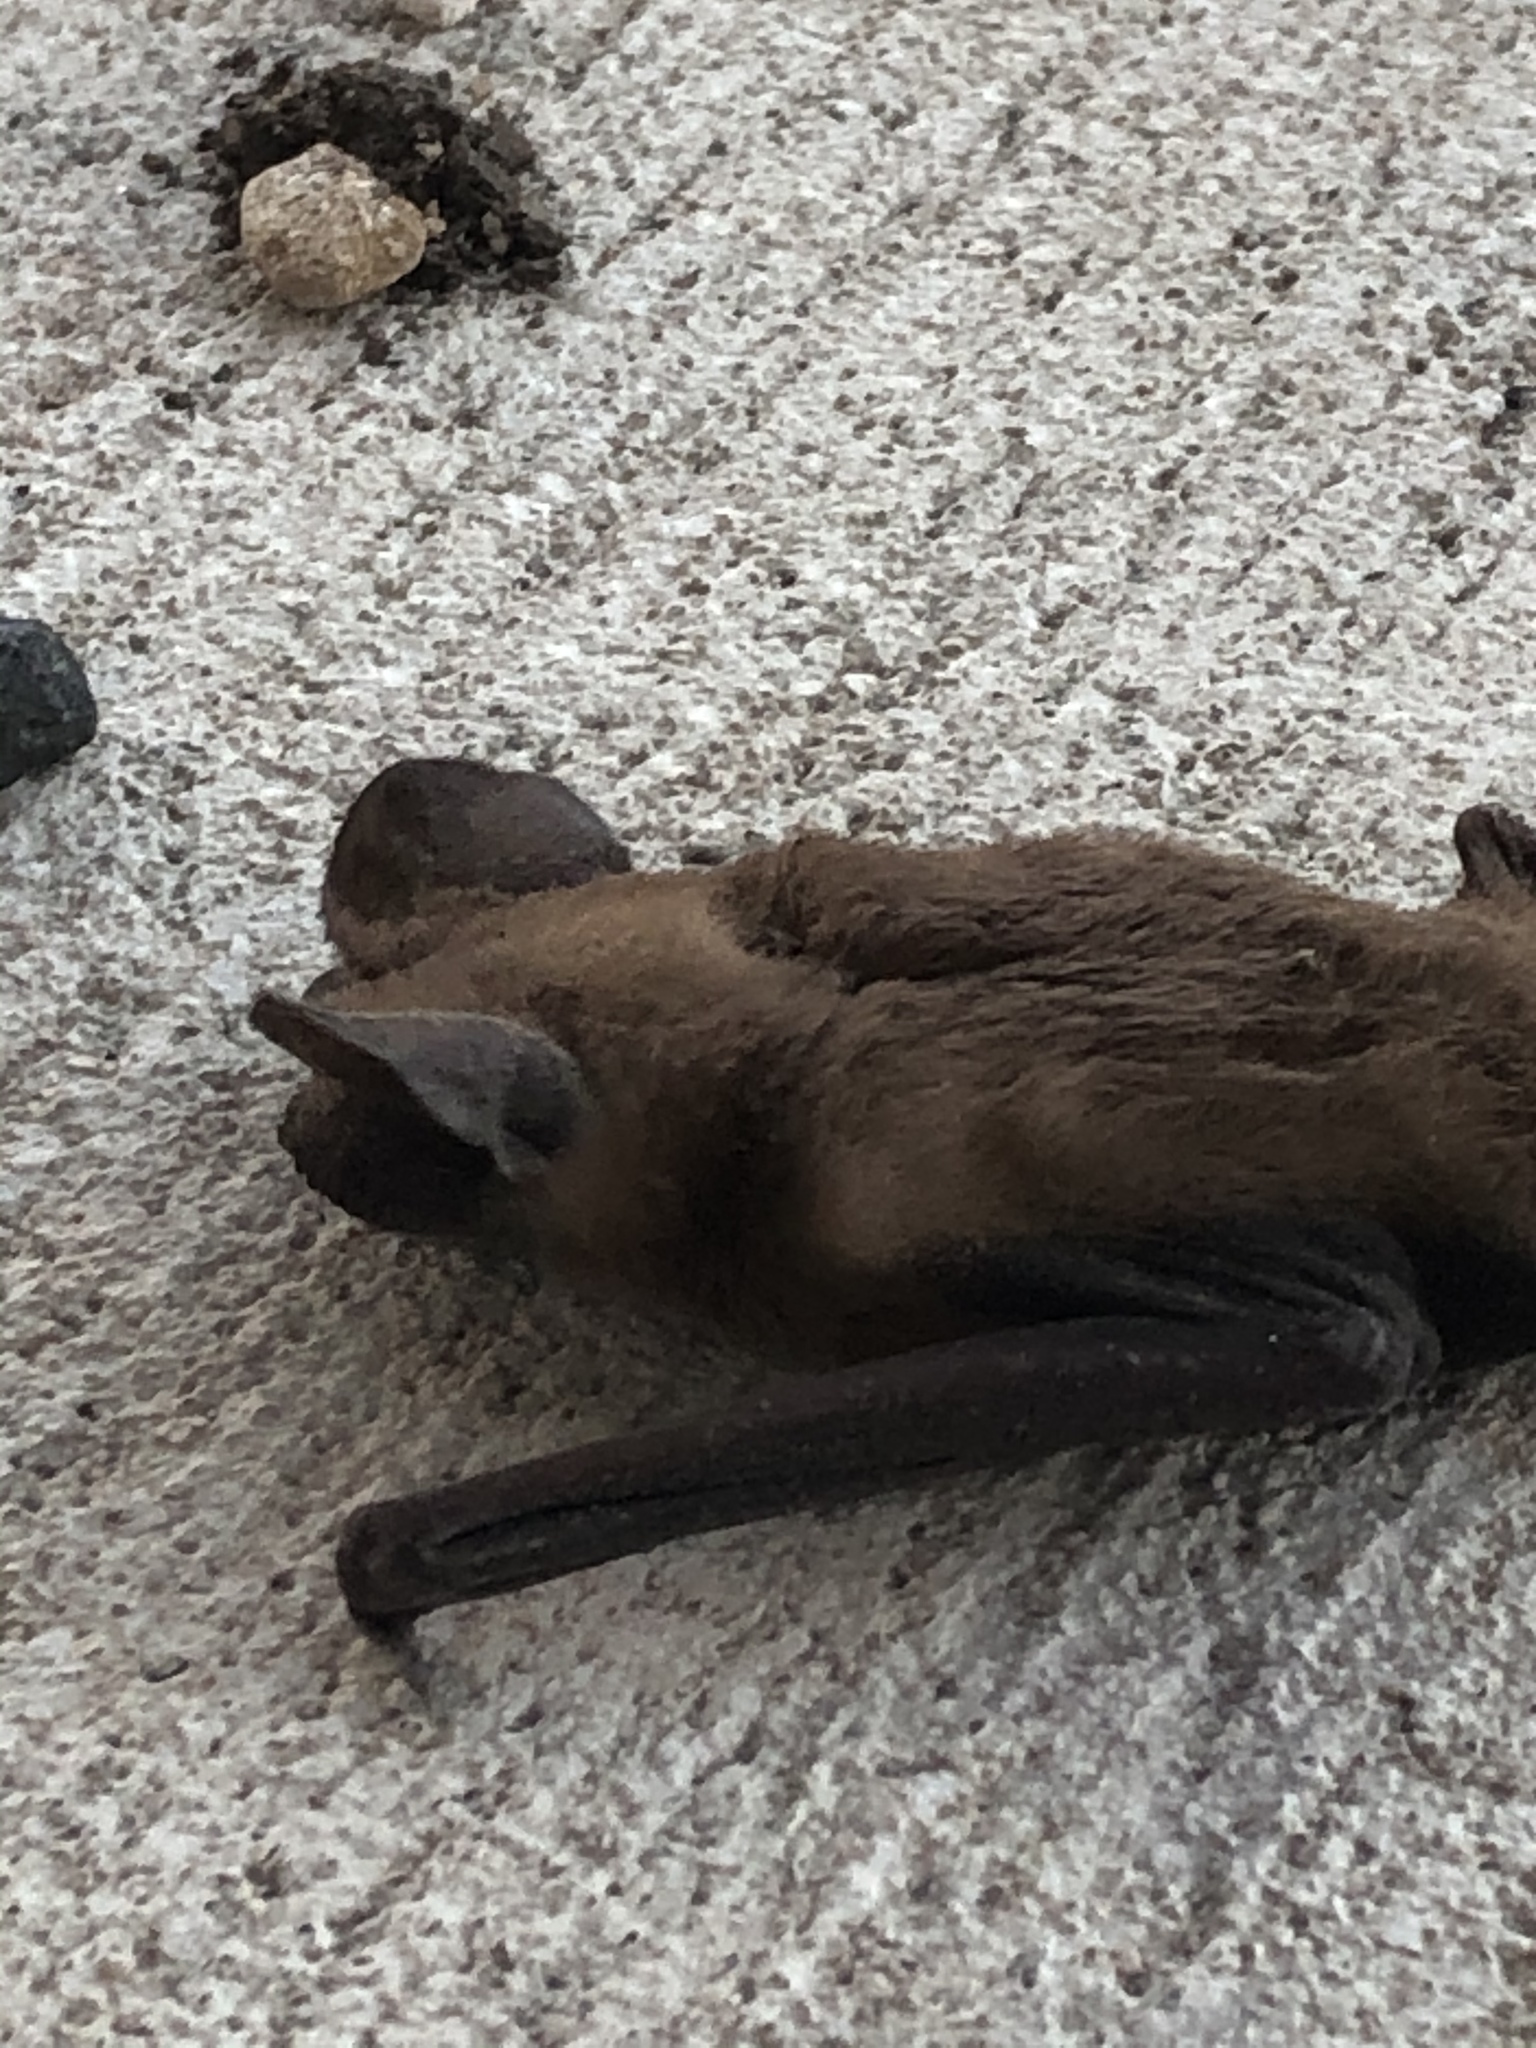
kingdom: Animalia
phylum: Chordata
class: Mammalia
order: Chiroptera
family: Molossidae
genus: Tadarida
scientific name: Tadarida brasiliensis
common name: Mexican free-tailed bat
